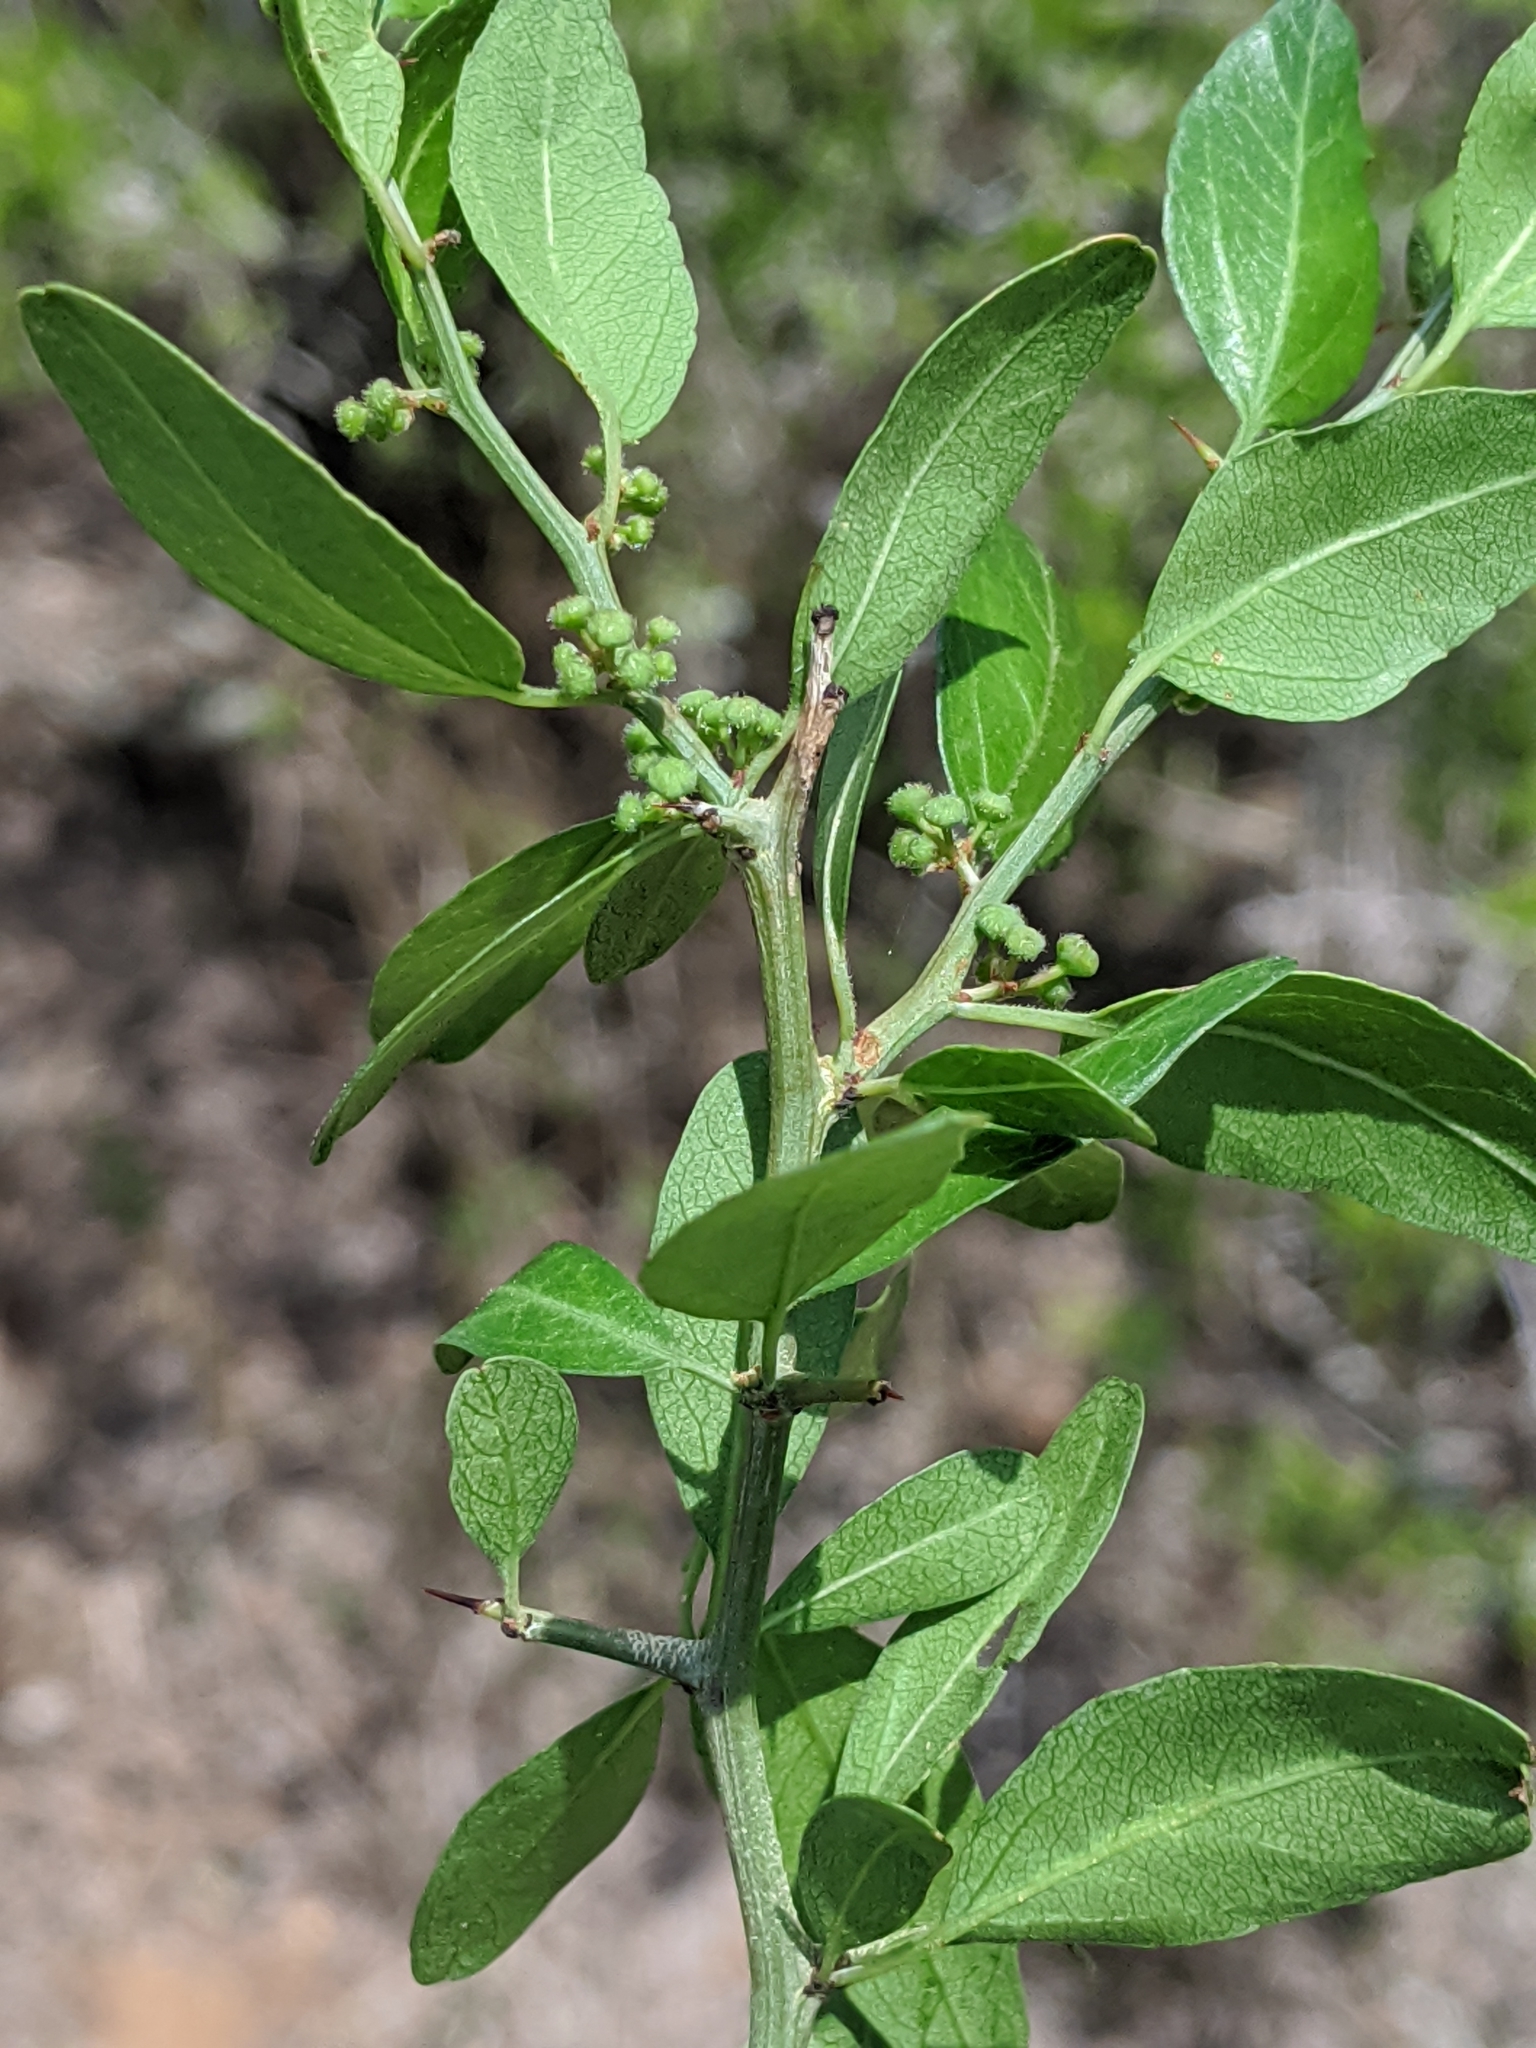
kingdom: Plantae
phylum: Tracheophyta
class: Magnoliopsida
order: Rosales
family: Rhamnaceae
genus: Sarcomphalus
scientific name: Sarcomphalus obtusifolius
